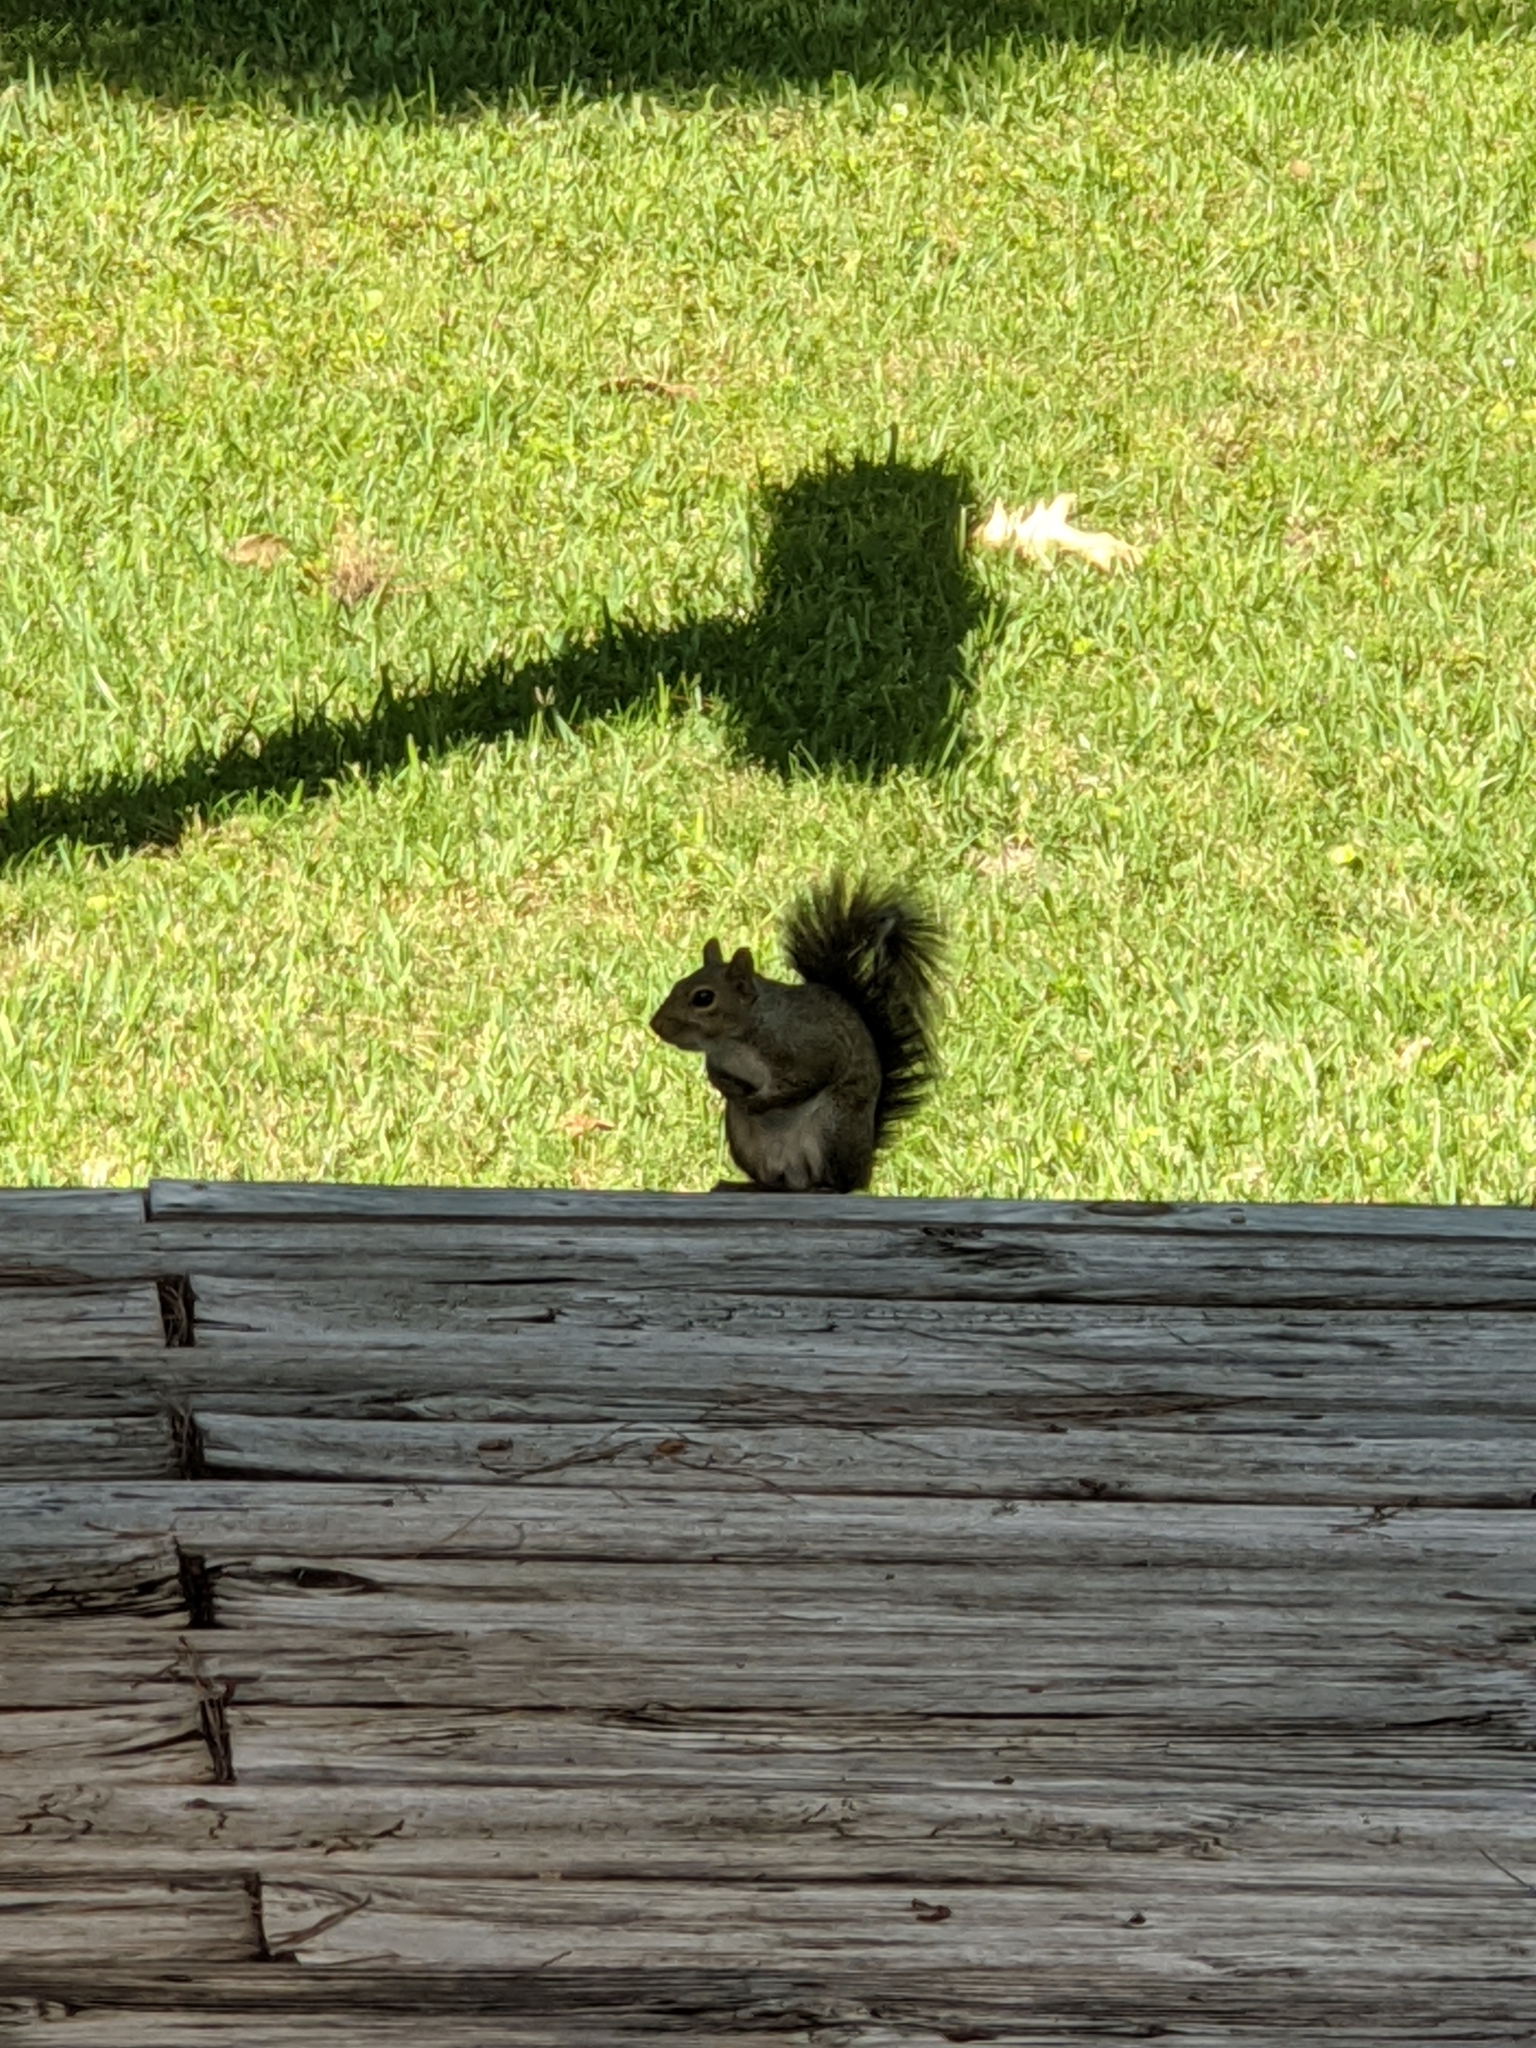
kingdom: Animalia
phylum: Chordata
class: Mammalia
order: Rodentia
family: Sciuridae
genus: Sciurus
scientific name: Sciurus carolinensis
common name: Eastern gray squirrel
